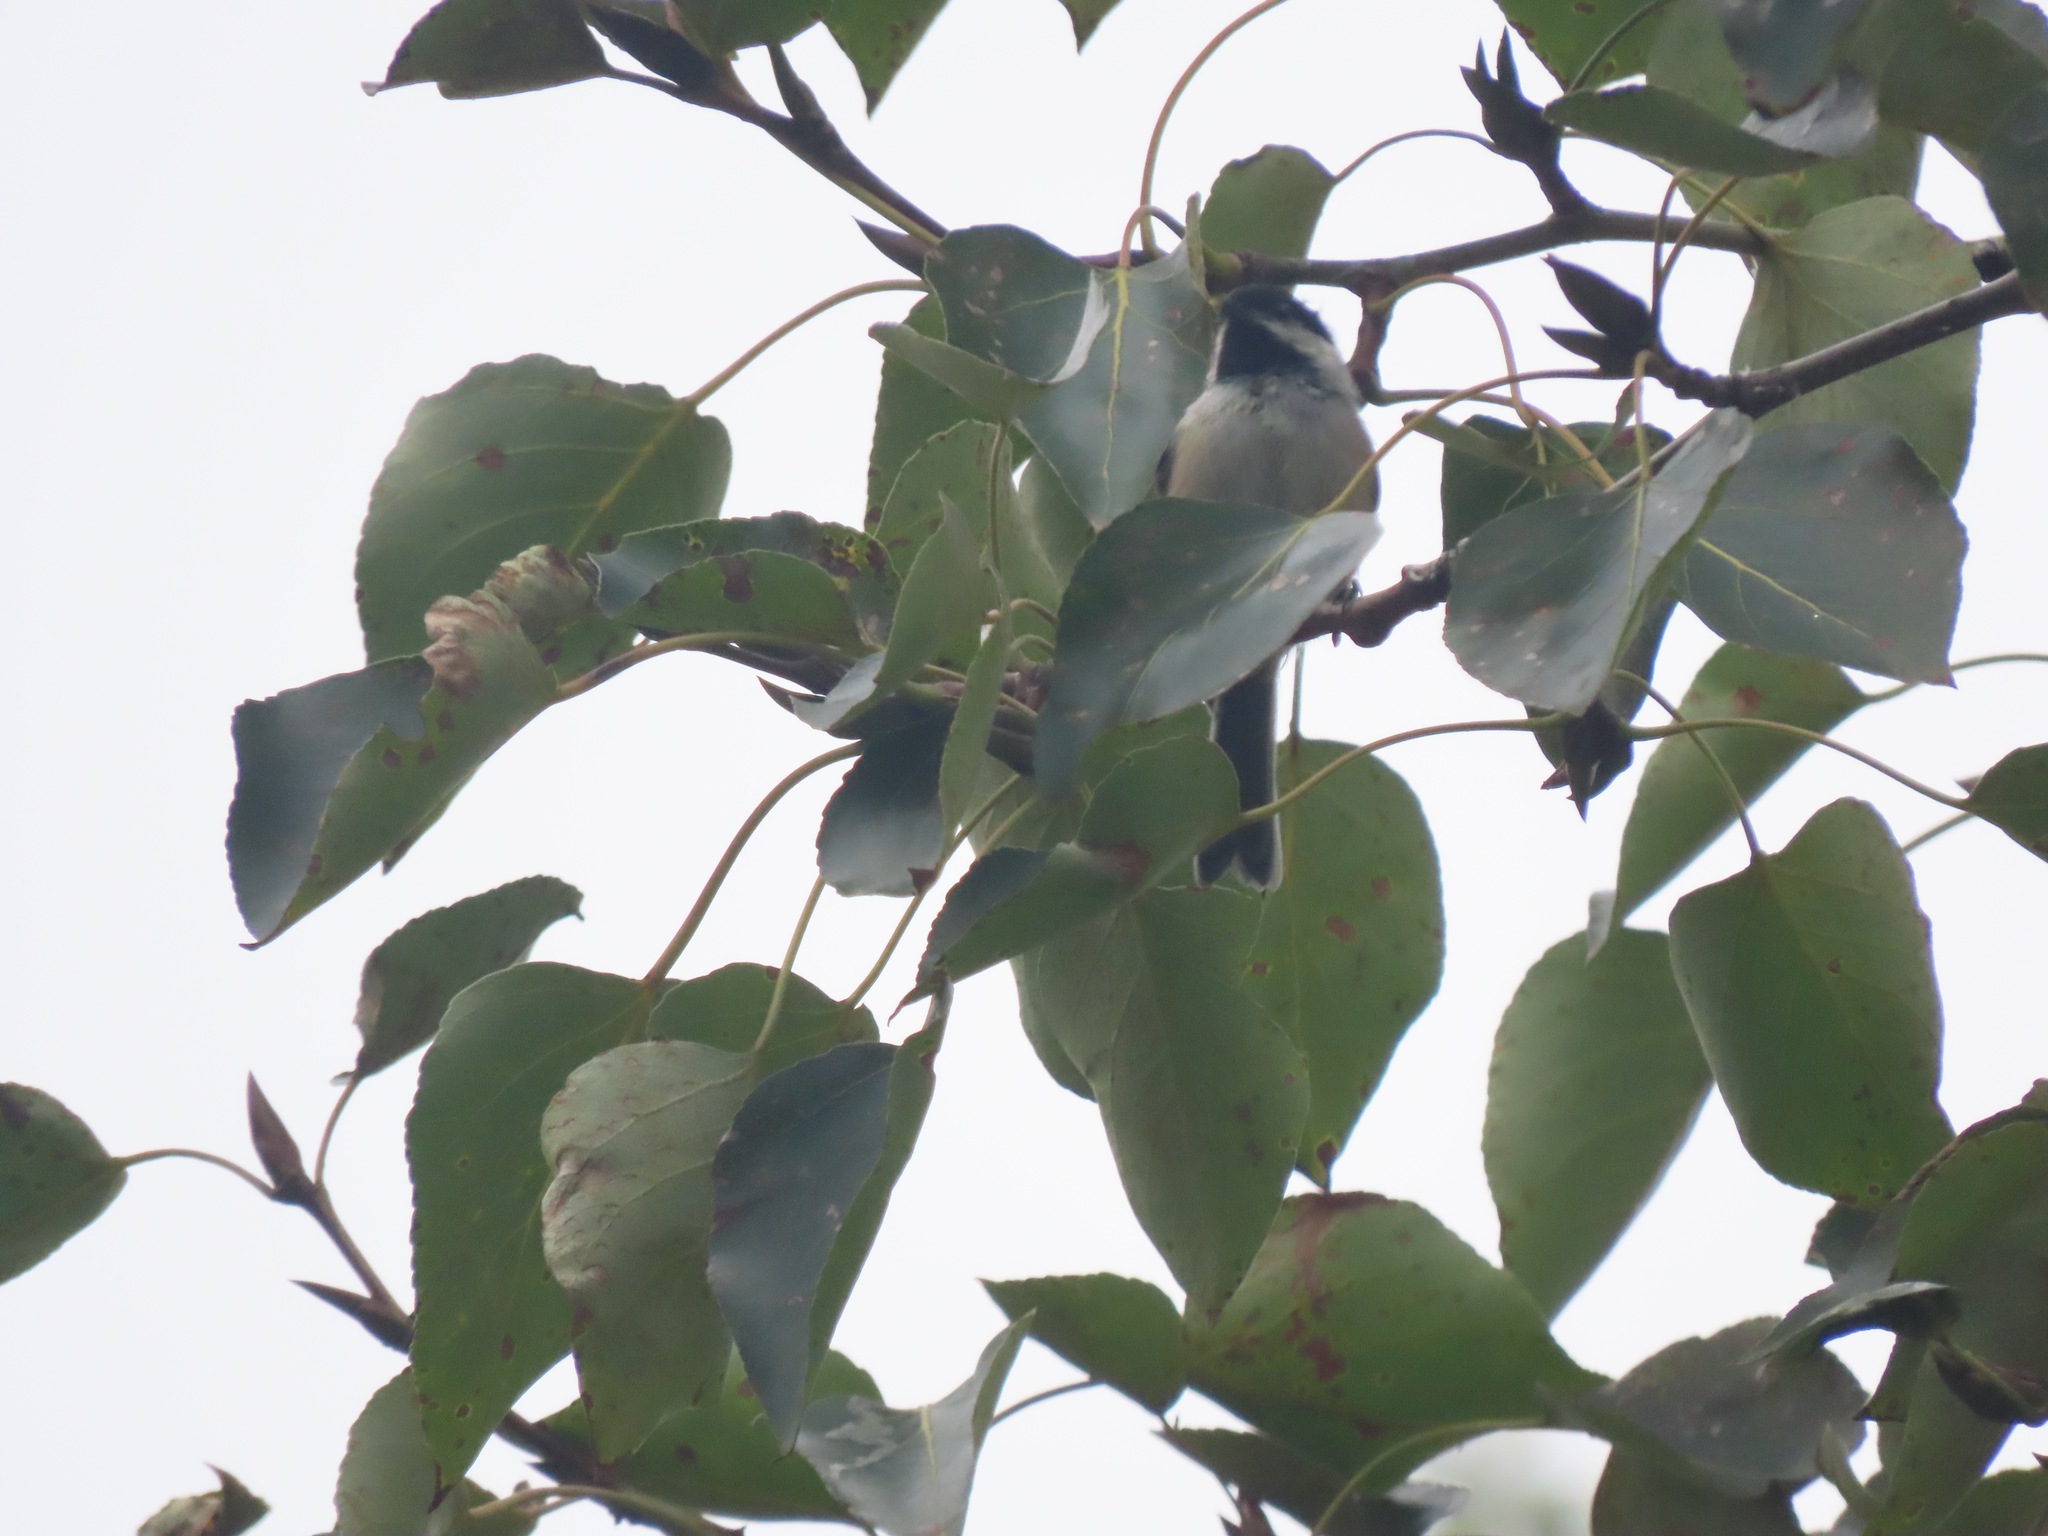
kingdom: Animalia
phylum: Chordata
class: Aves
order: Passeriformes
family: Paridae
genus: Poecile
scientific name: Poecile atricapillus
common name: Black-capped chickadee
